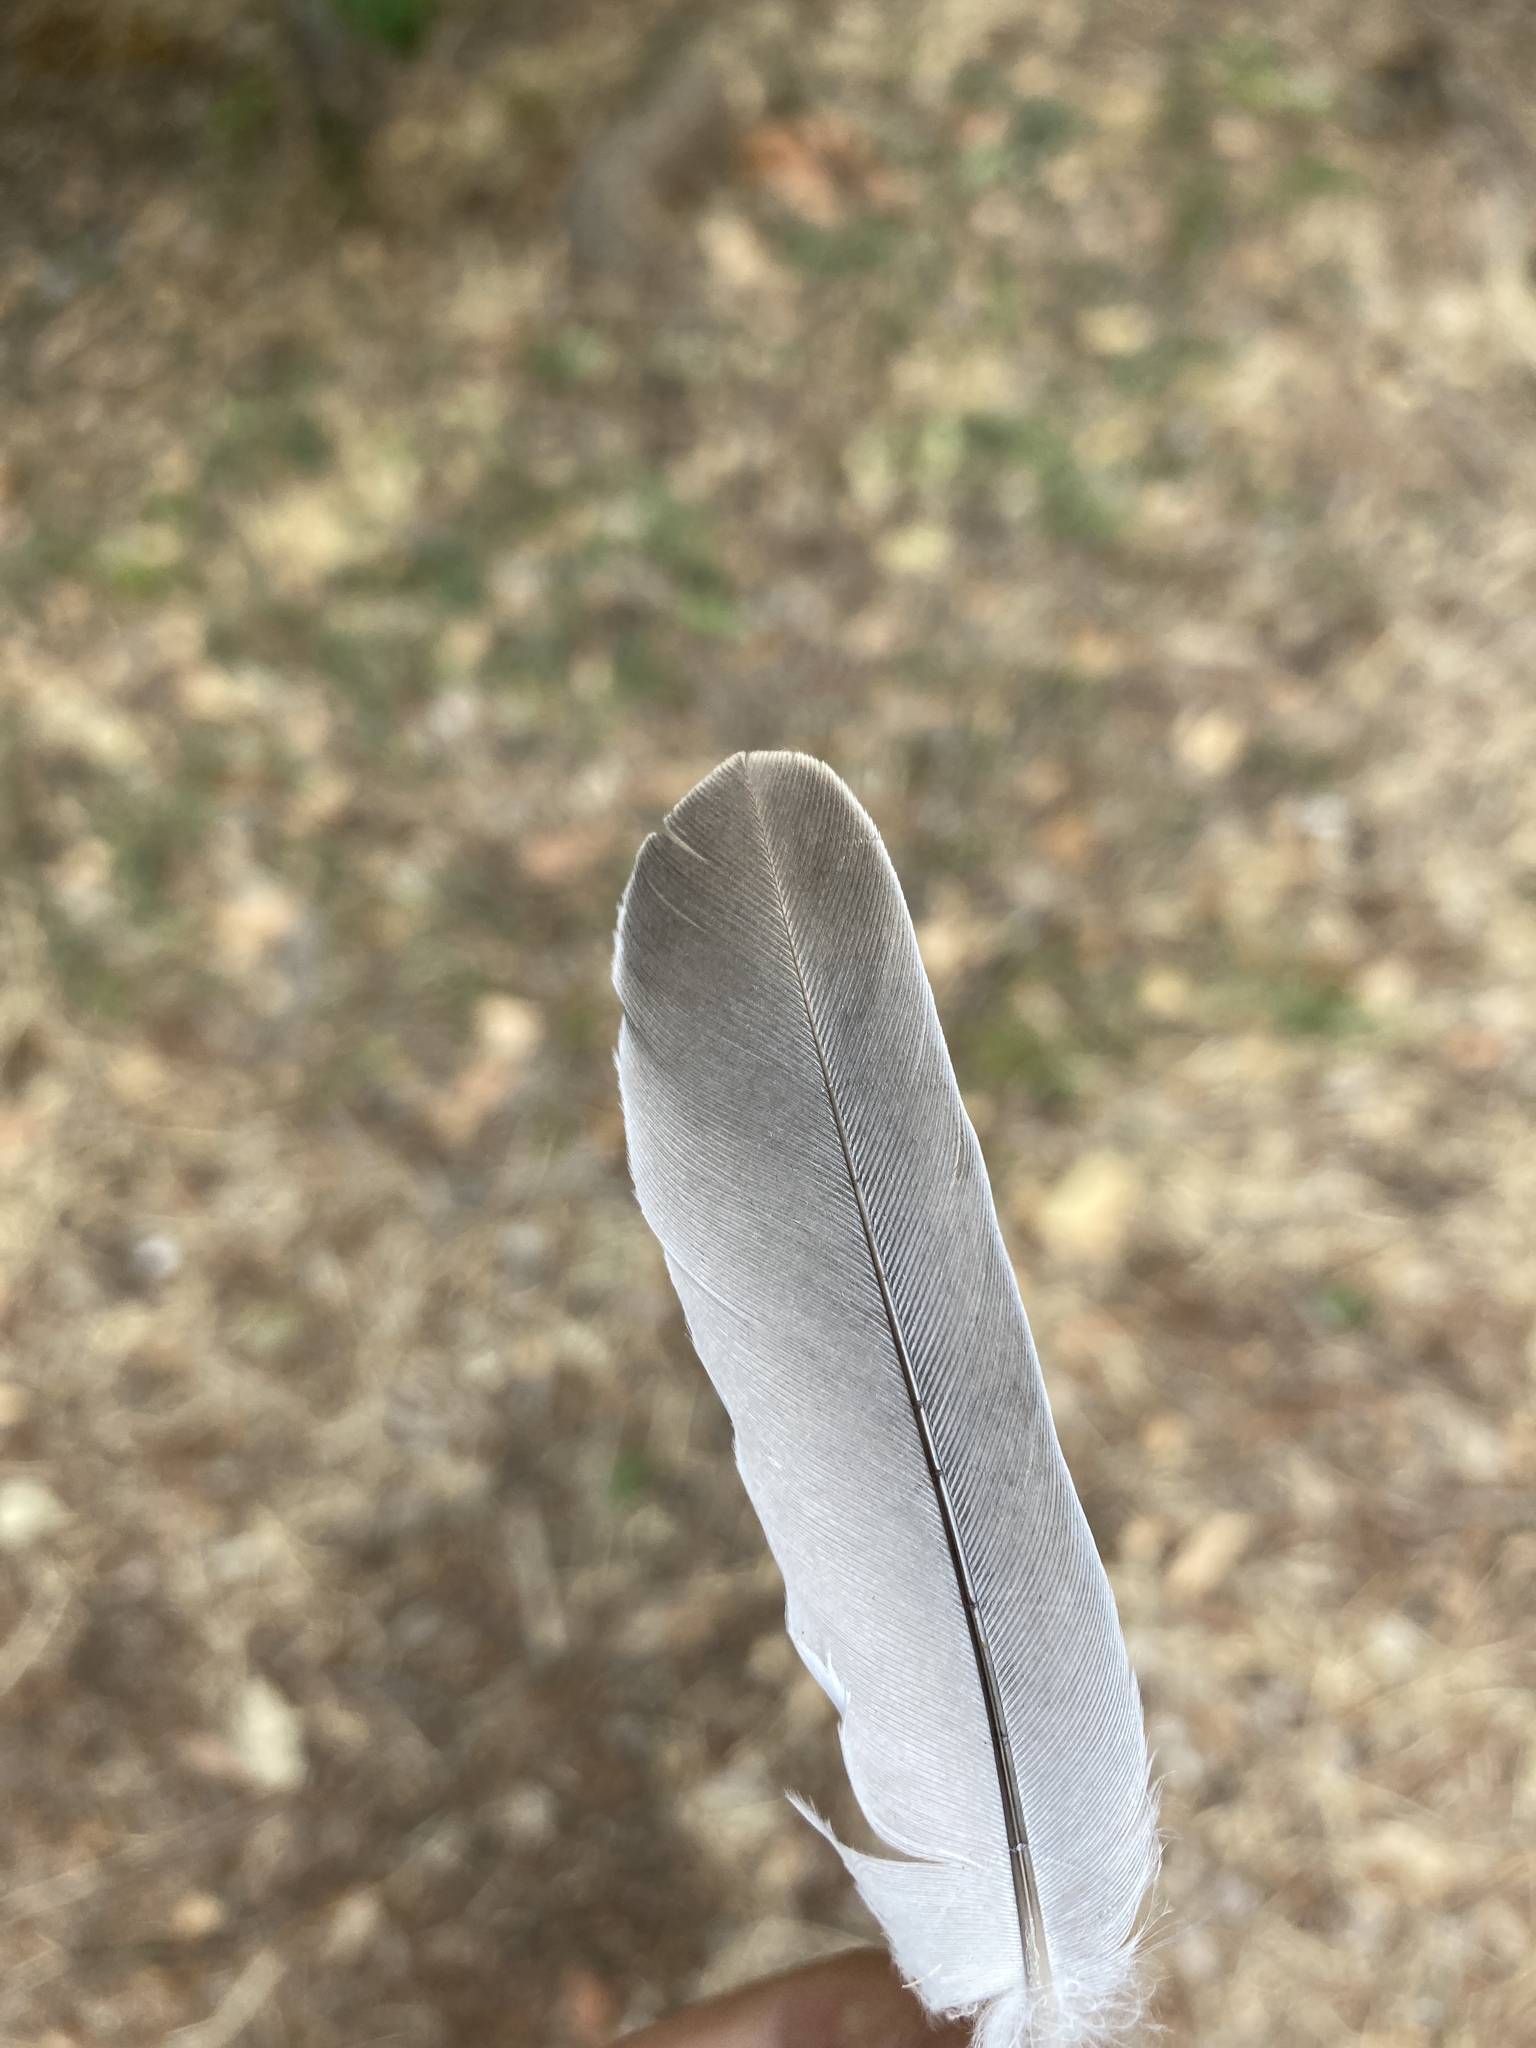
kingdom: Animalia
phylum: Chordata
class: Aves
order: Columbiformes
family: Columbidae
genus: Streptopelia
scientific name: Streptopelia decaocto
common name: Eurasian collared dove
